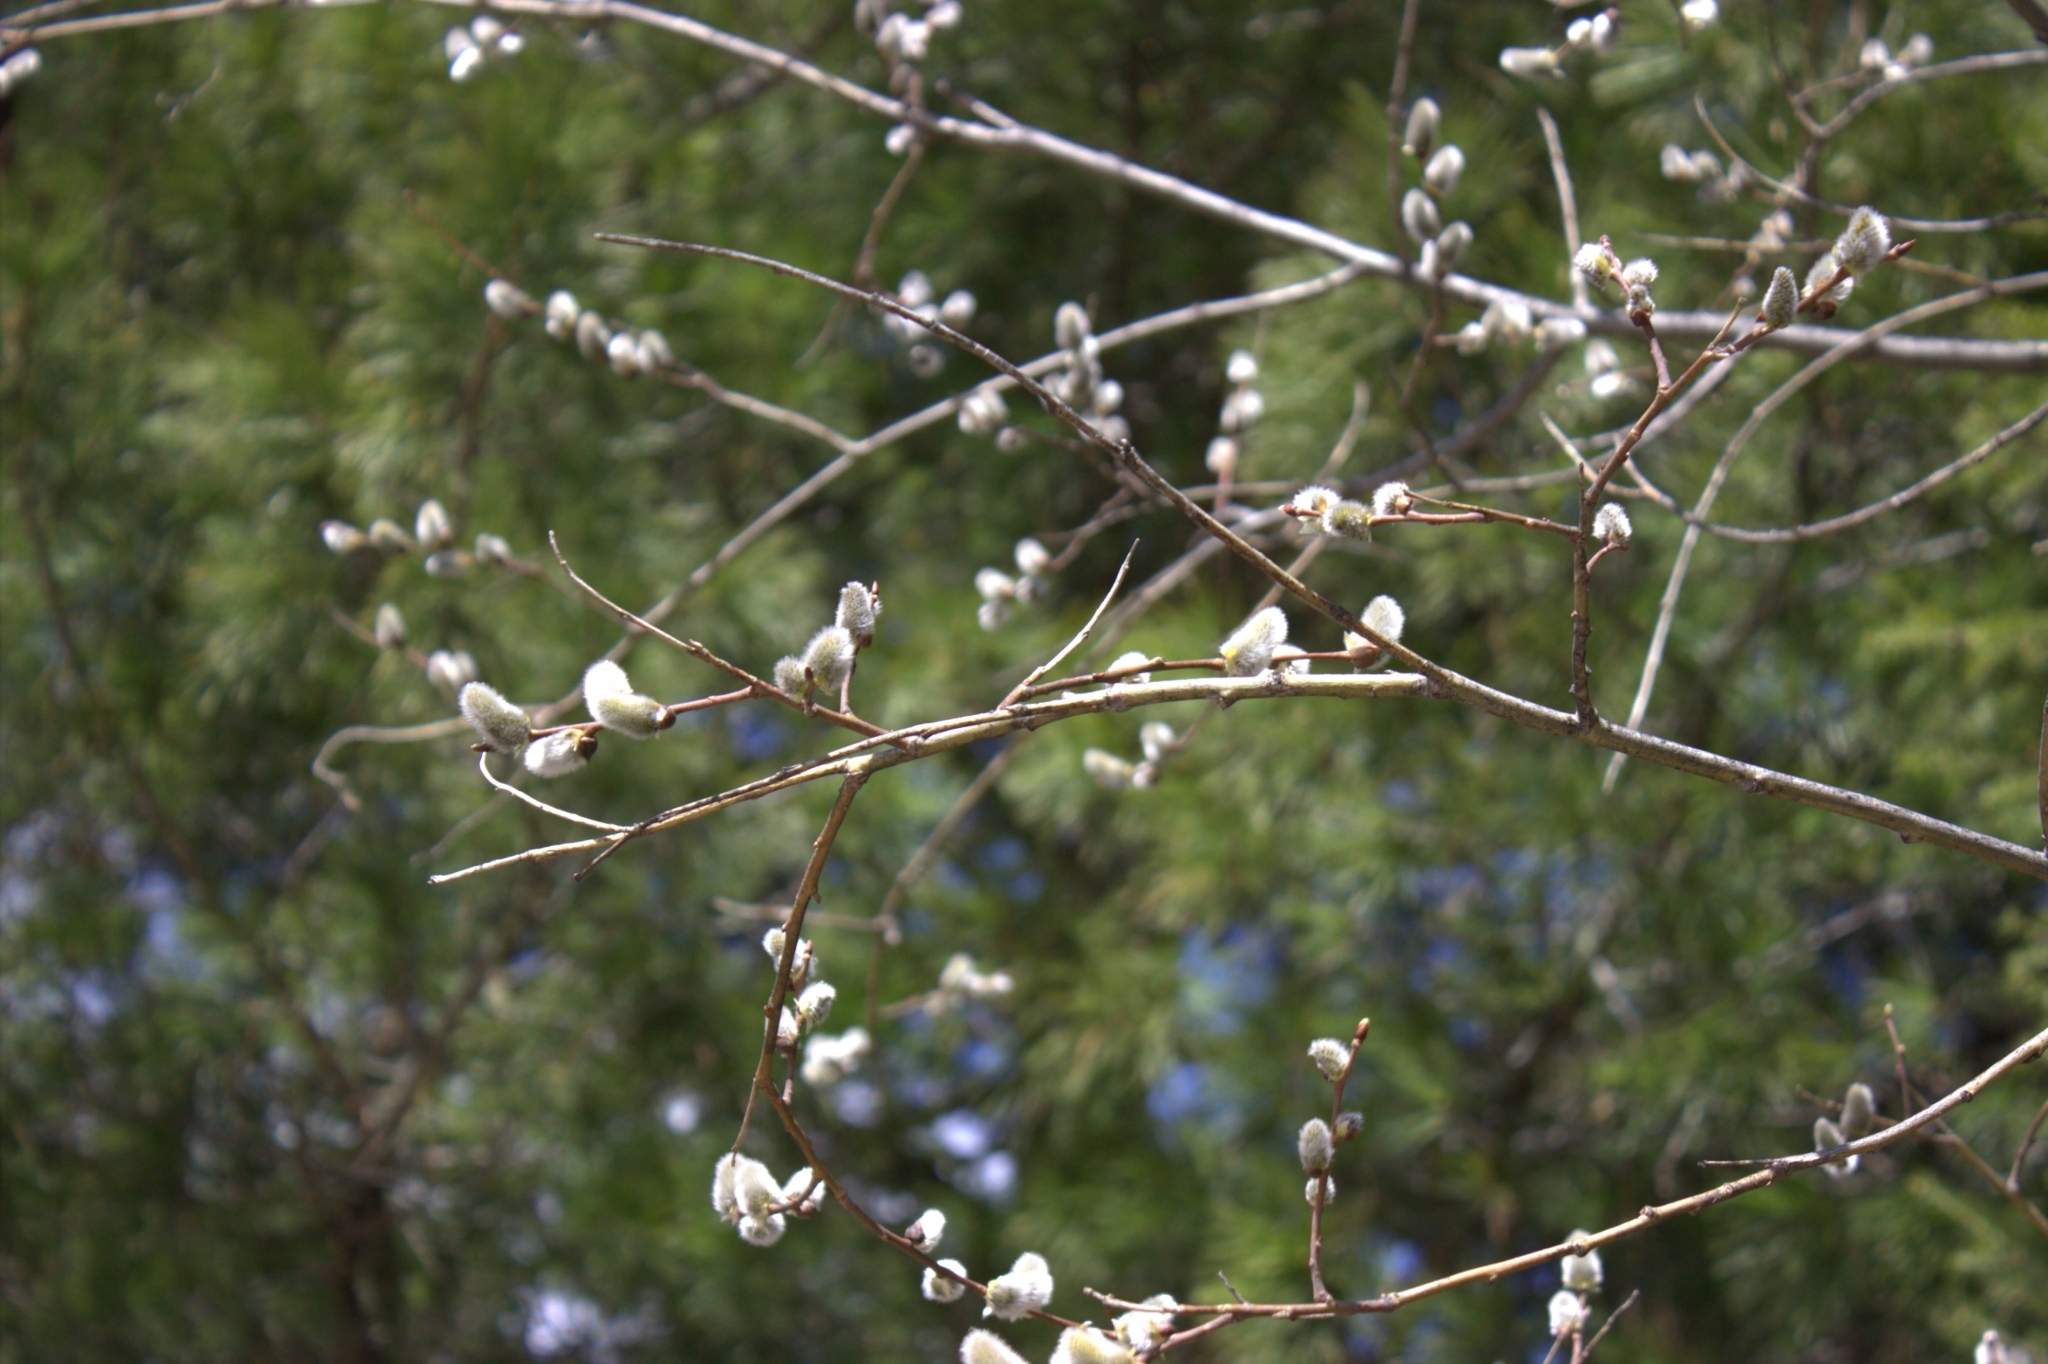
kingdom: Plantae
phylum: Tracheophyta
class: Magnoliopsida
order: Malpighiales
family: Salicaceae
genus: Salix
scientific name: Salix caprea
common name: Goat willow
